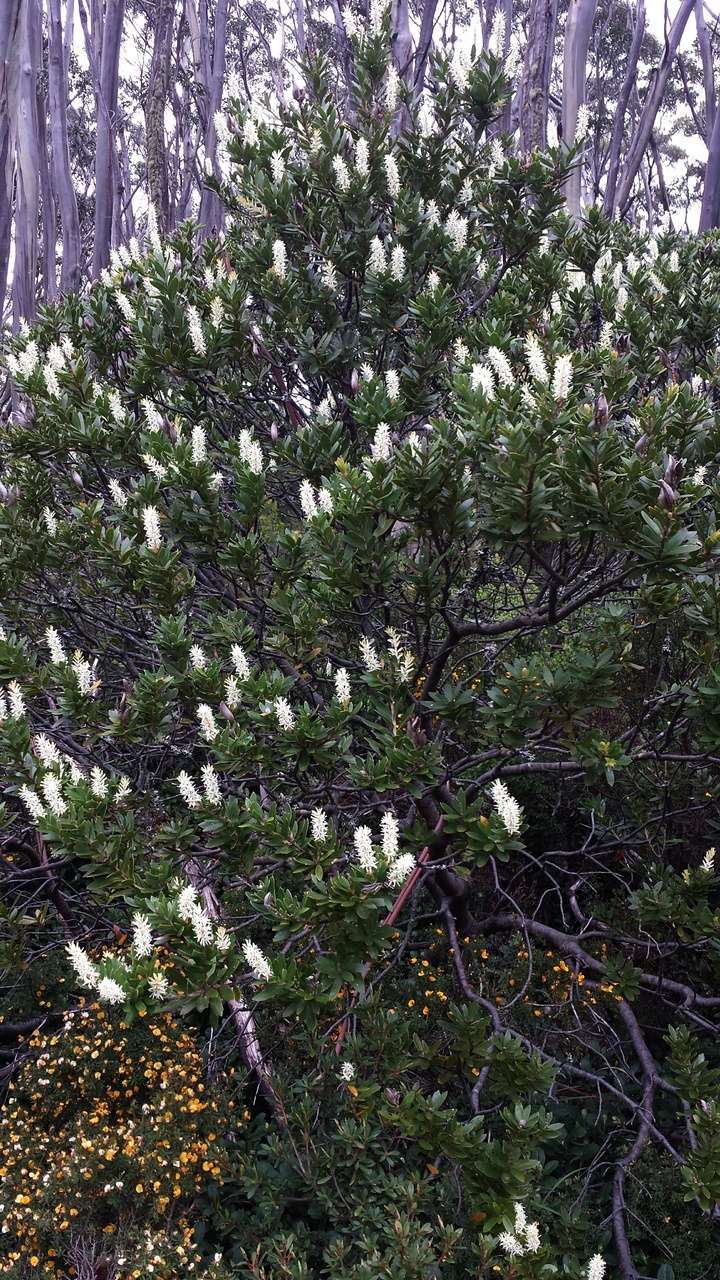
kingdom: Plantae
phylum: Tracheophyta
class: Magnoliopsida
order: Proteales
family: Proteaceae
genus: Orites
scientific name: Orites lancifolius
